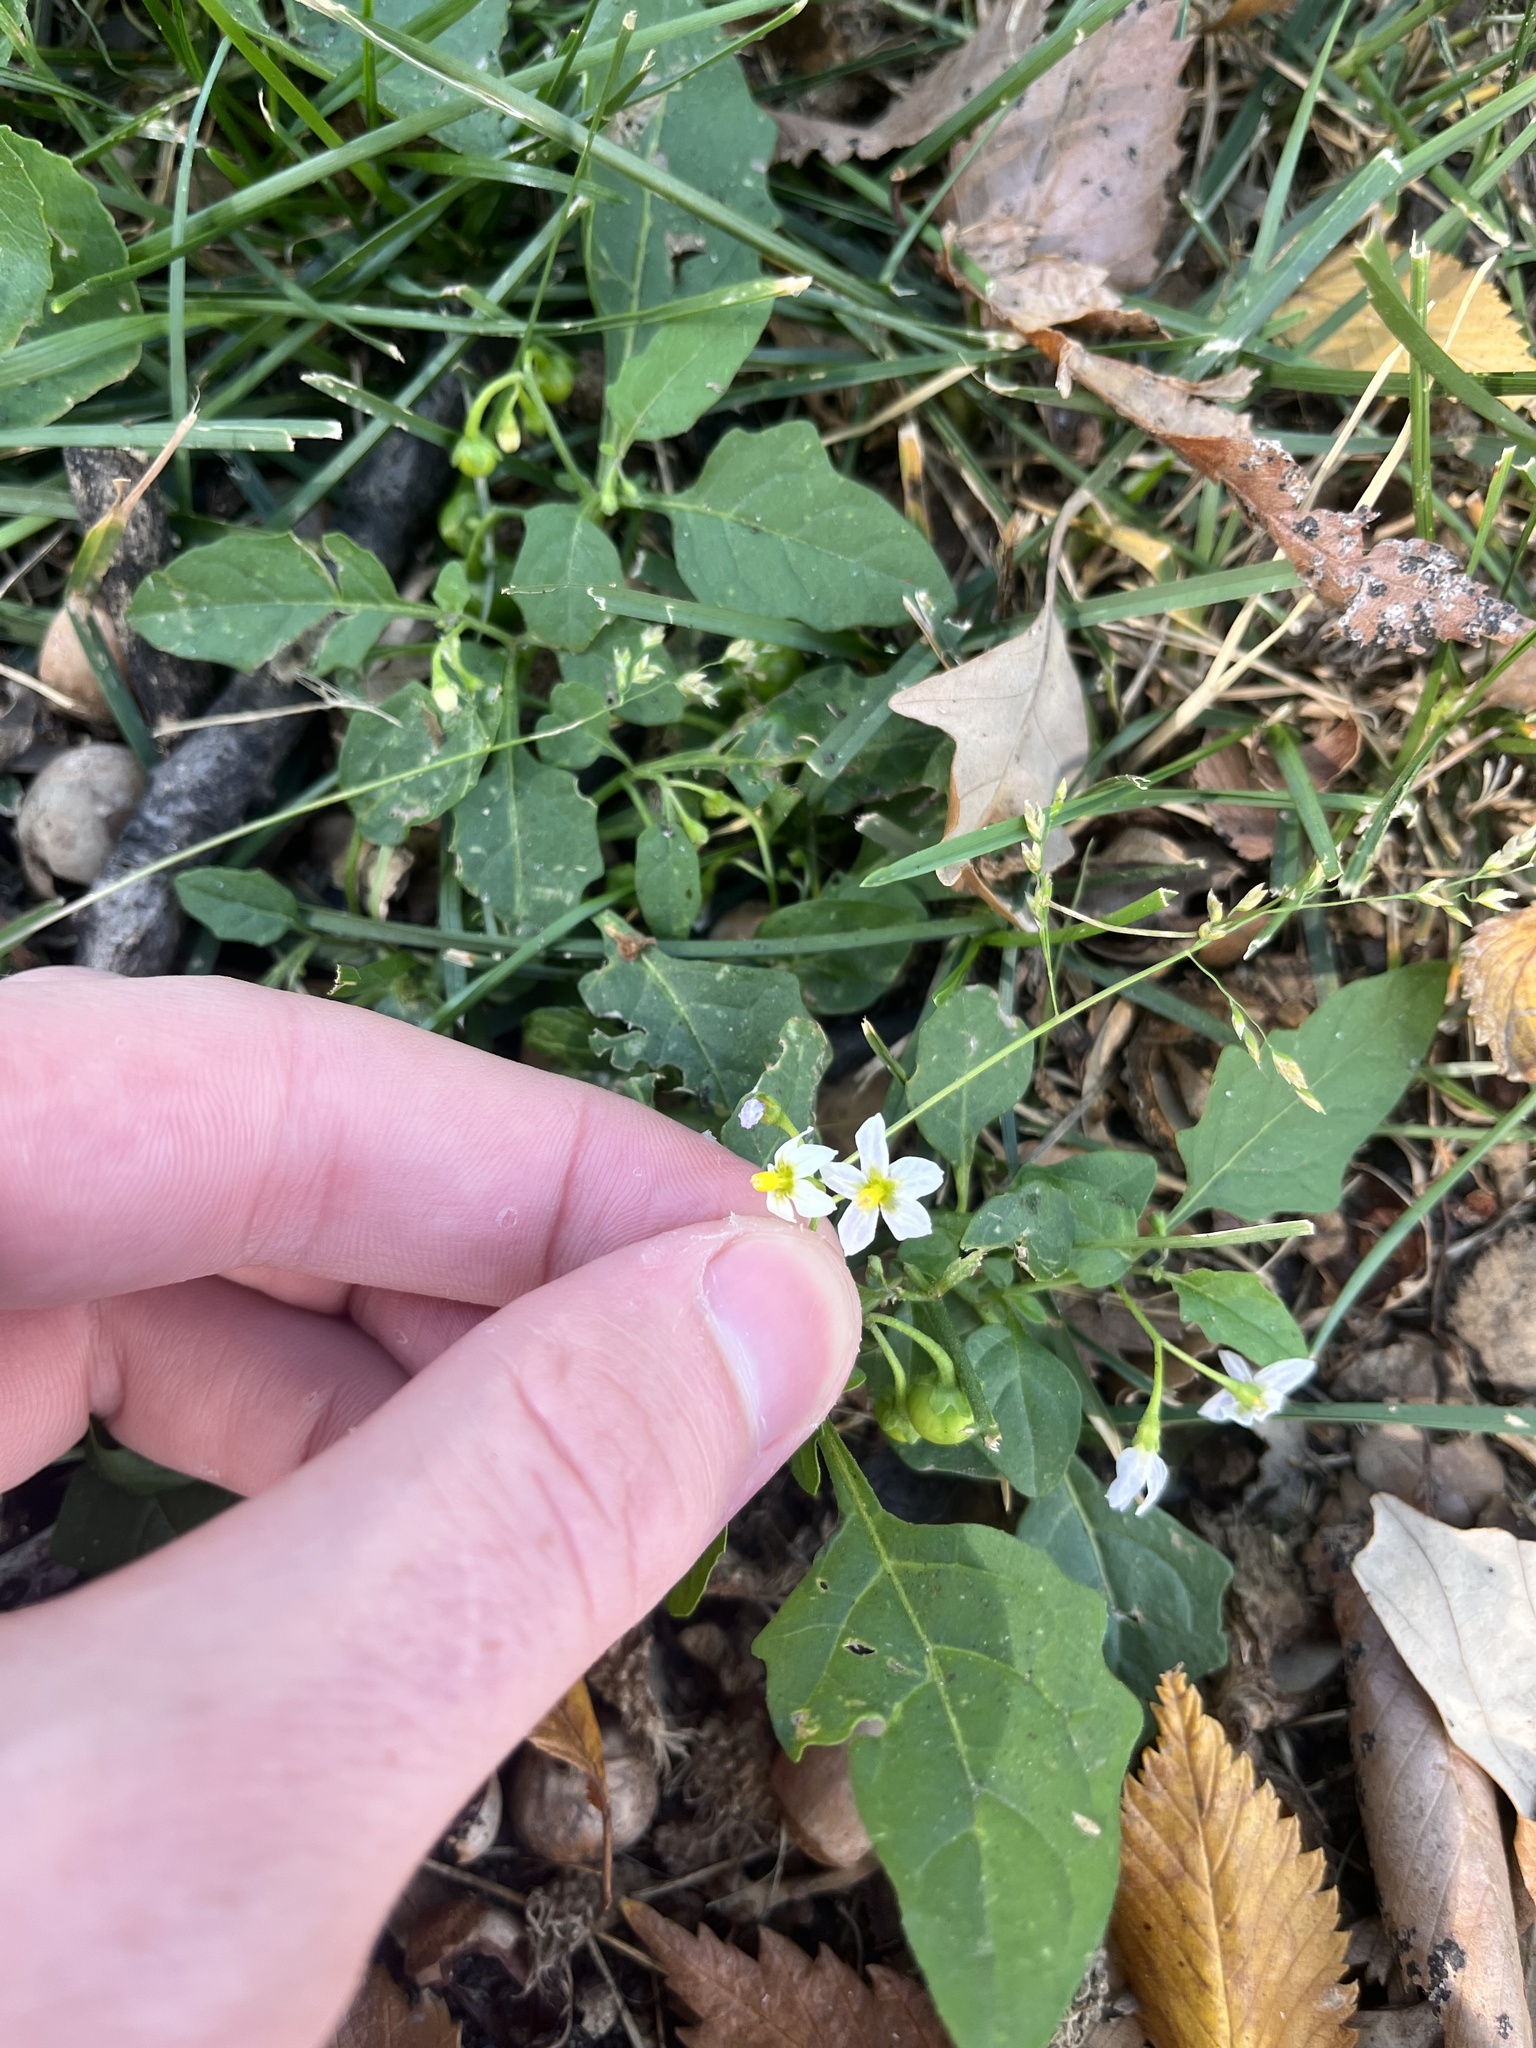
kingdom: Plantae
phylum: Tracheophyta
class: Magnoliopsida
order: Solanales
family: Solanaceae
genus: Solanum
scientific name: Solanum emulans
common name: Eastern black nightshade
